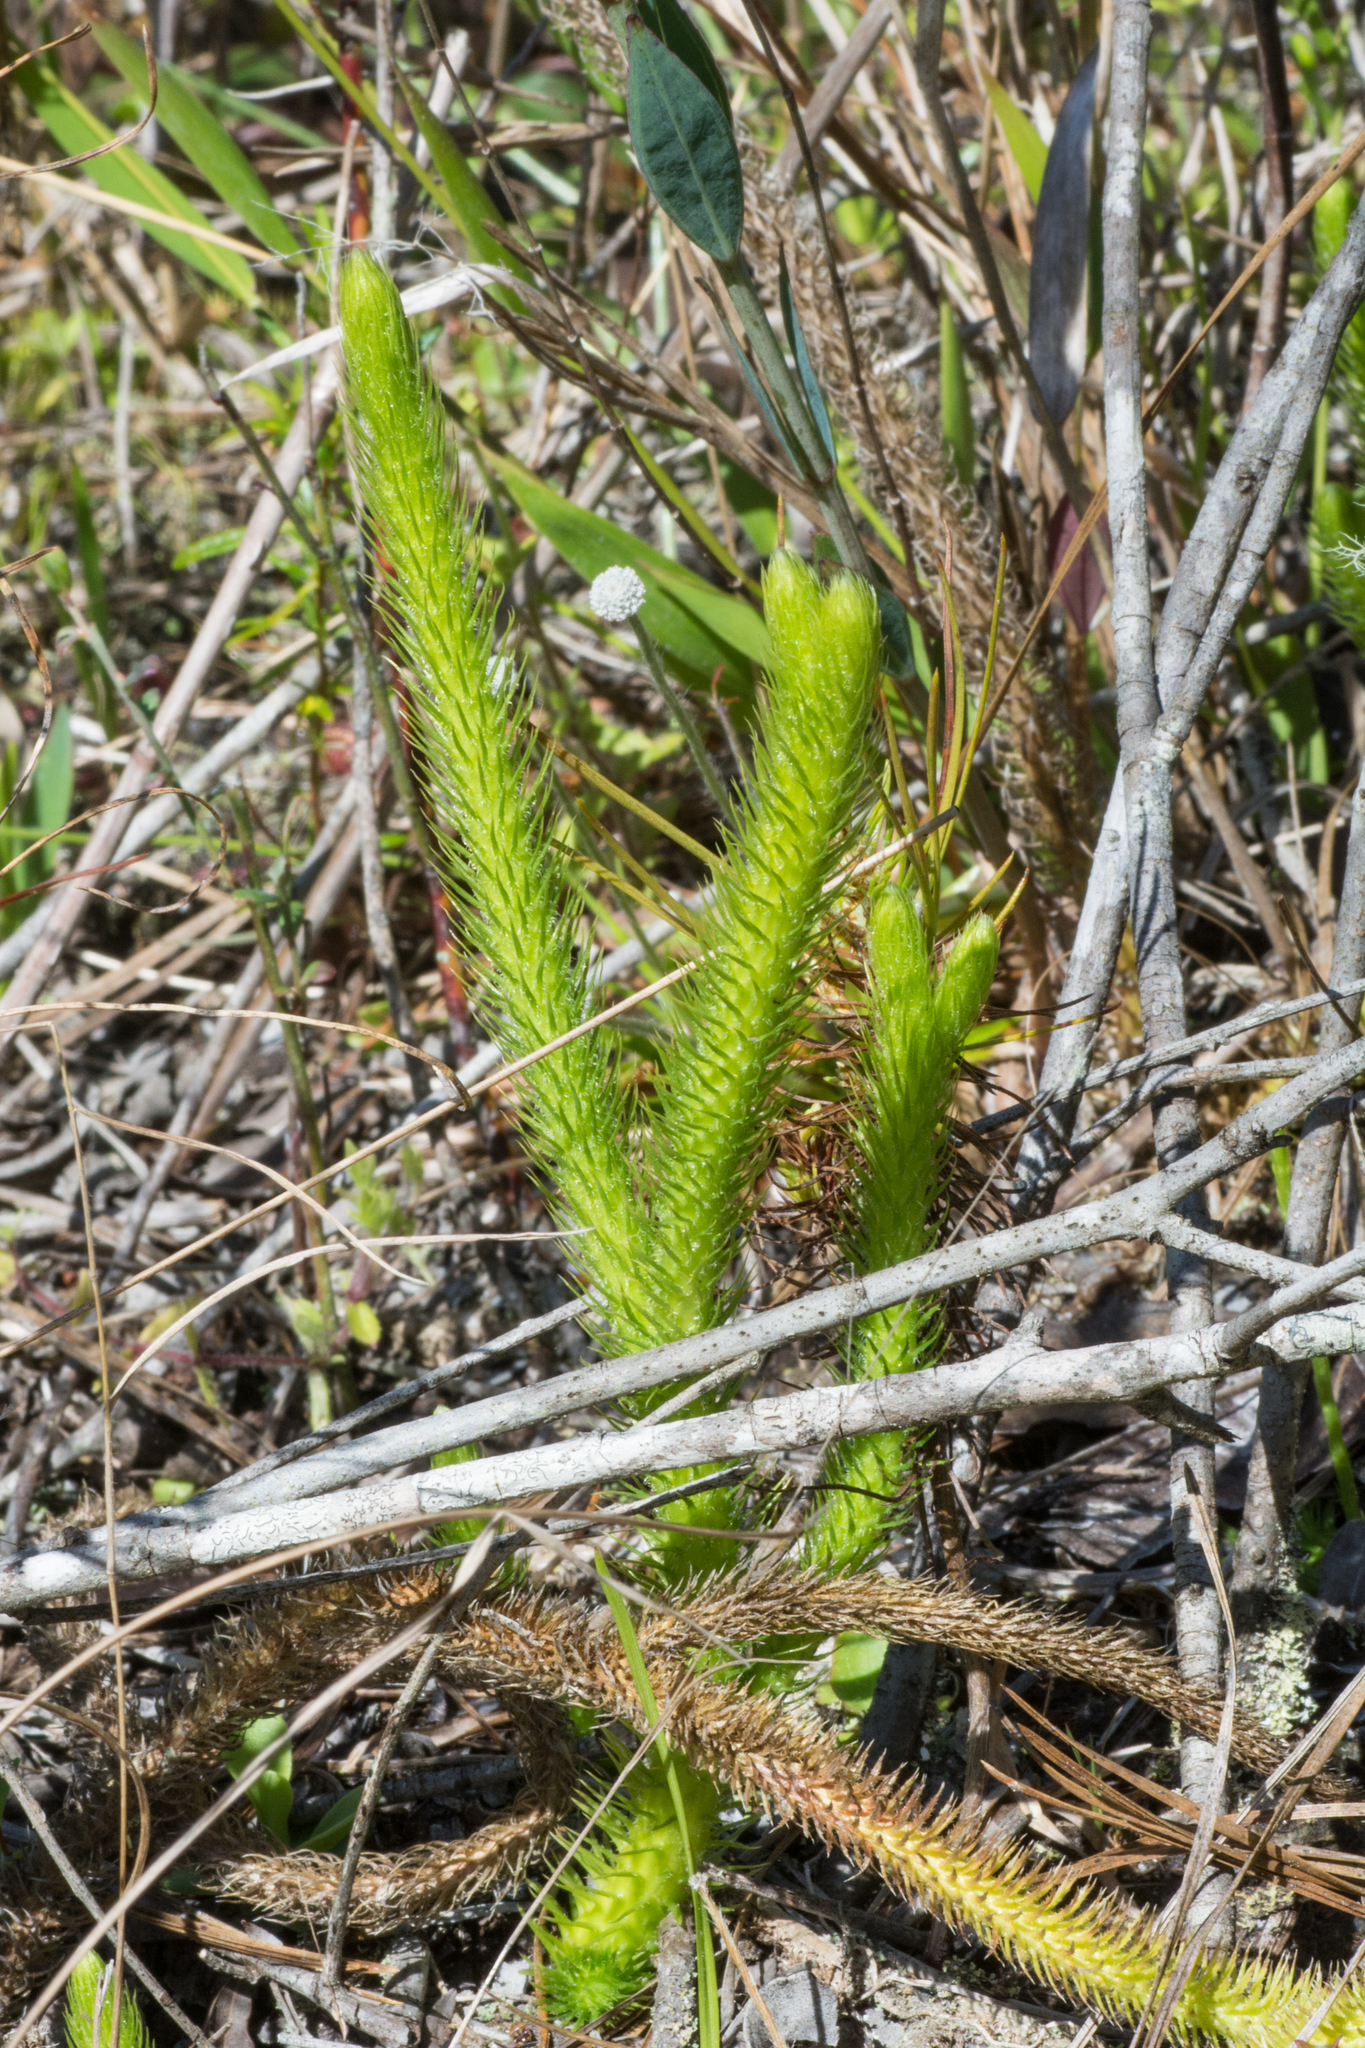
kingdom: Plantae
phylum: Tracheophyta
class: Lycopodiopsida
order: Lycopodiales
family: Lycopodiaceae
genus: Lycopodiella
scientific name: Lycopodiella alopecuroides
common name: Foxtail clubmoss
